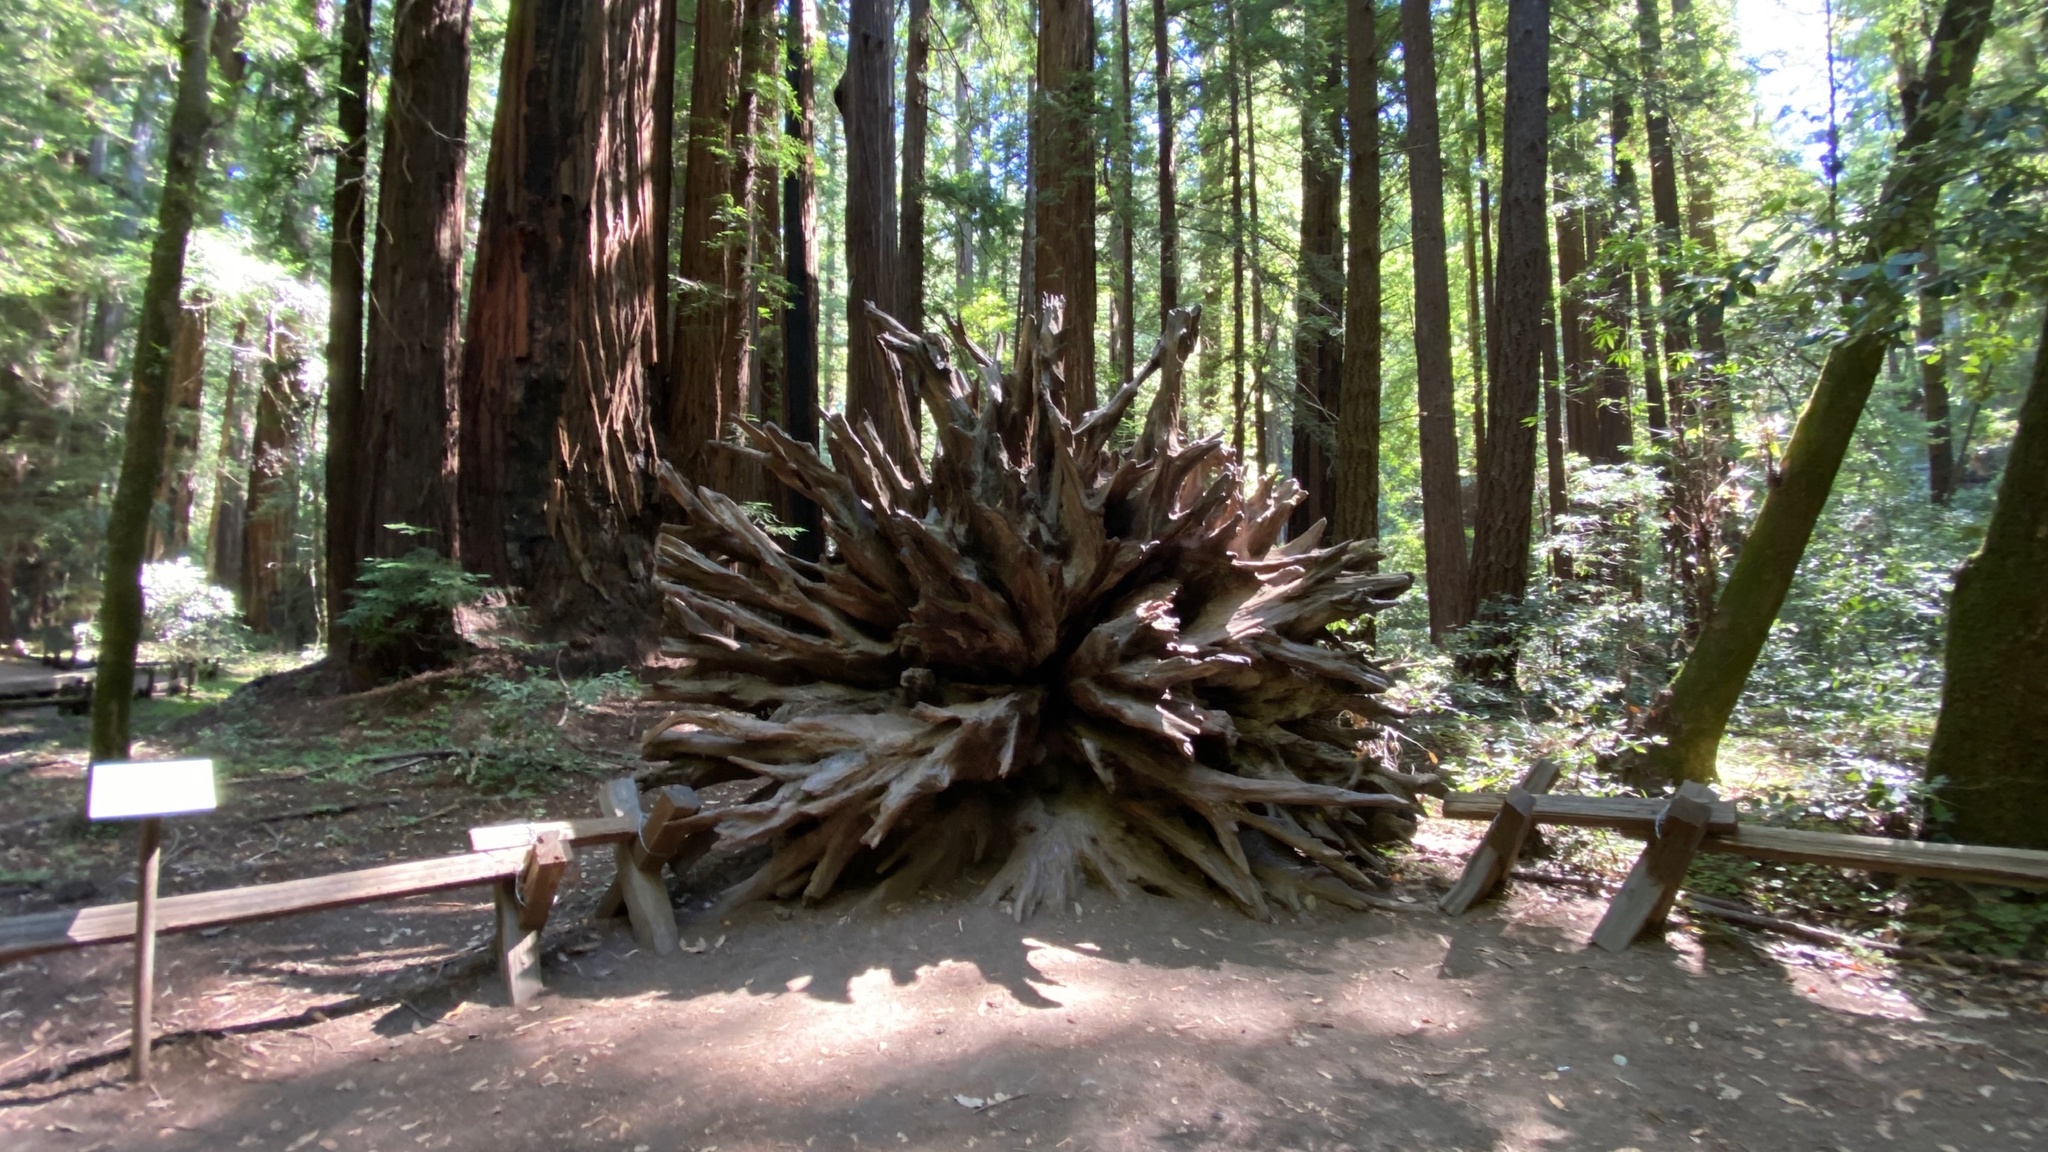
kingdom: Plantae
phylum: Tracheophyta
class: Pinopsida
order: Pinales
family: Cupressaceae
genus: Sequoia
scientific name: Sequoia sempervirens
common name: Coast redwood
